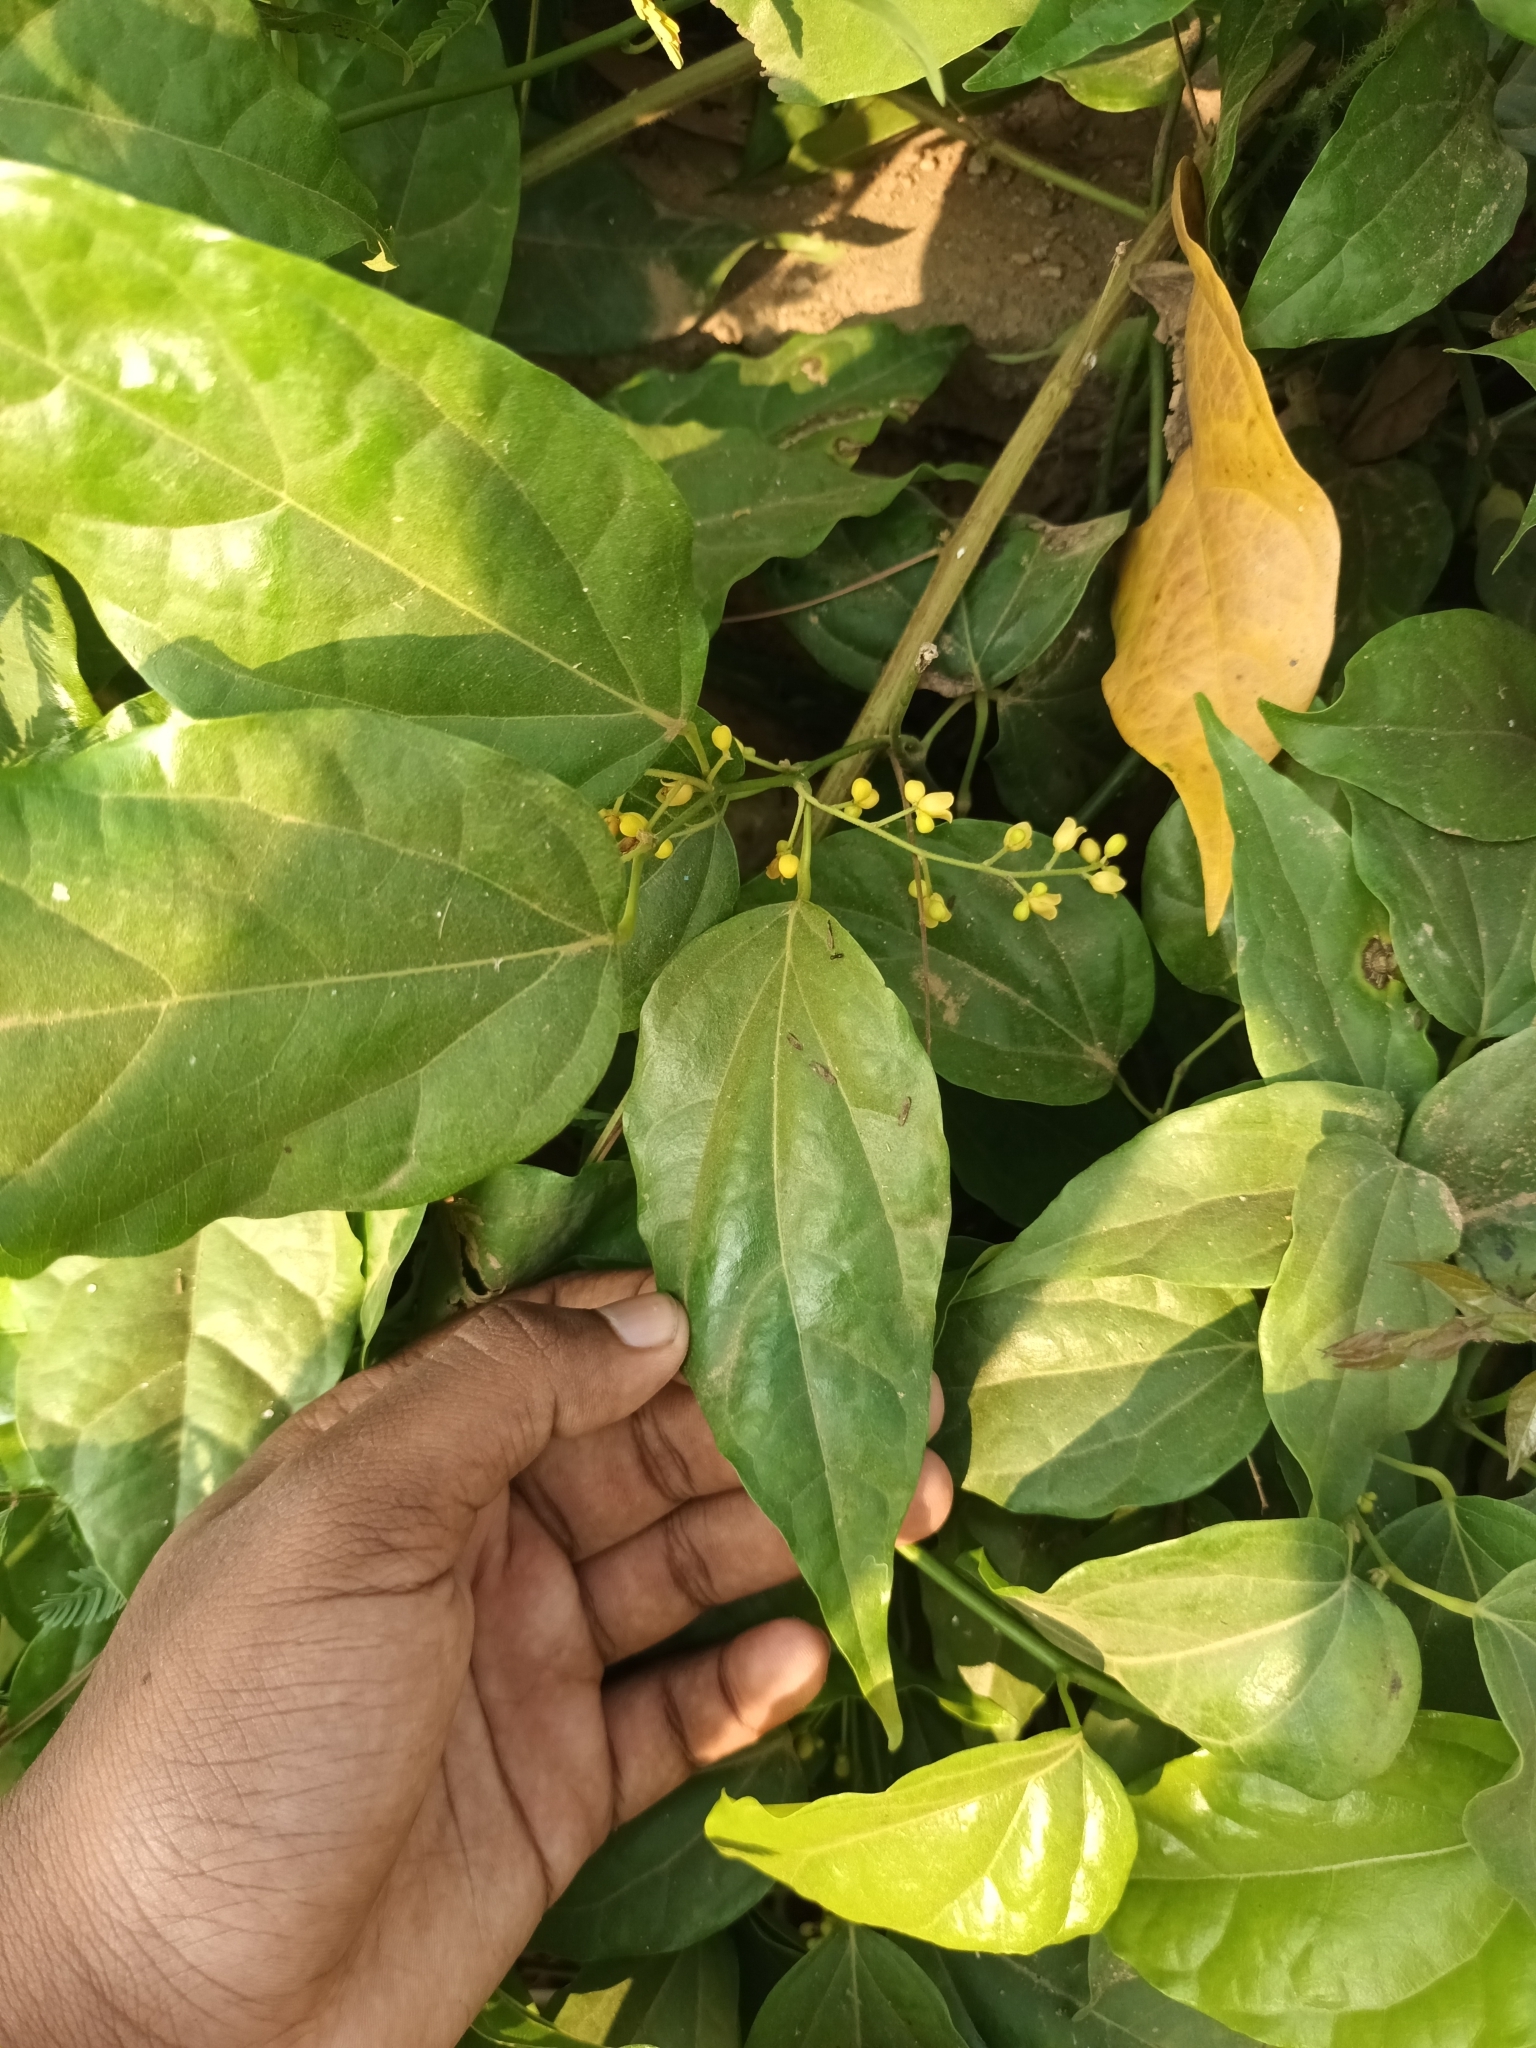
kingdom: Plantae
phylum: Tracheophyta
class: Magnoliopsida
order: Ranunculales
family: Menispermaceae
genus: Tiliacora
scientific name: Tiliacora acuminata
